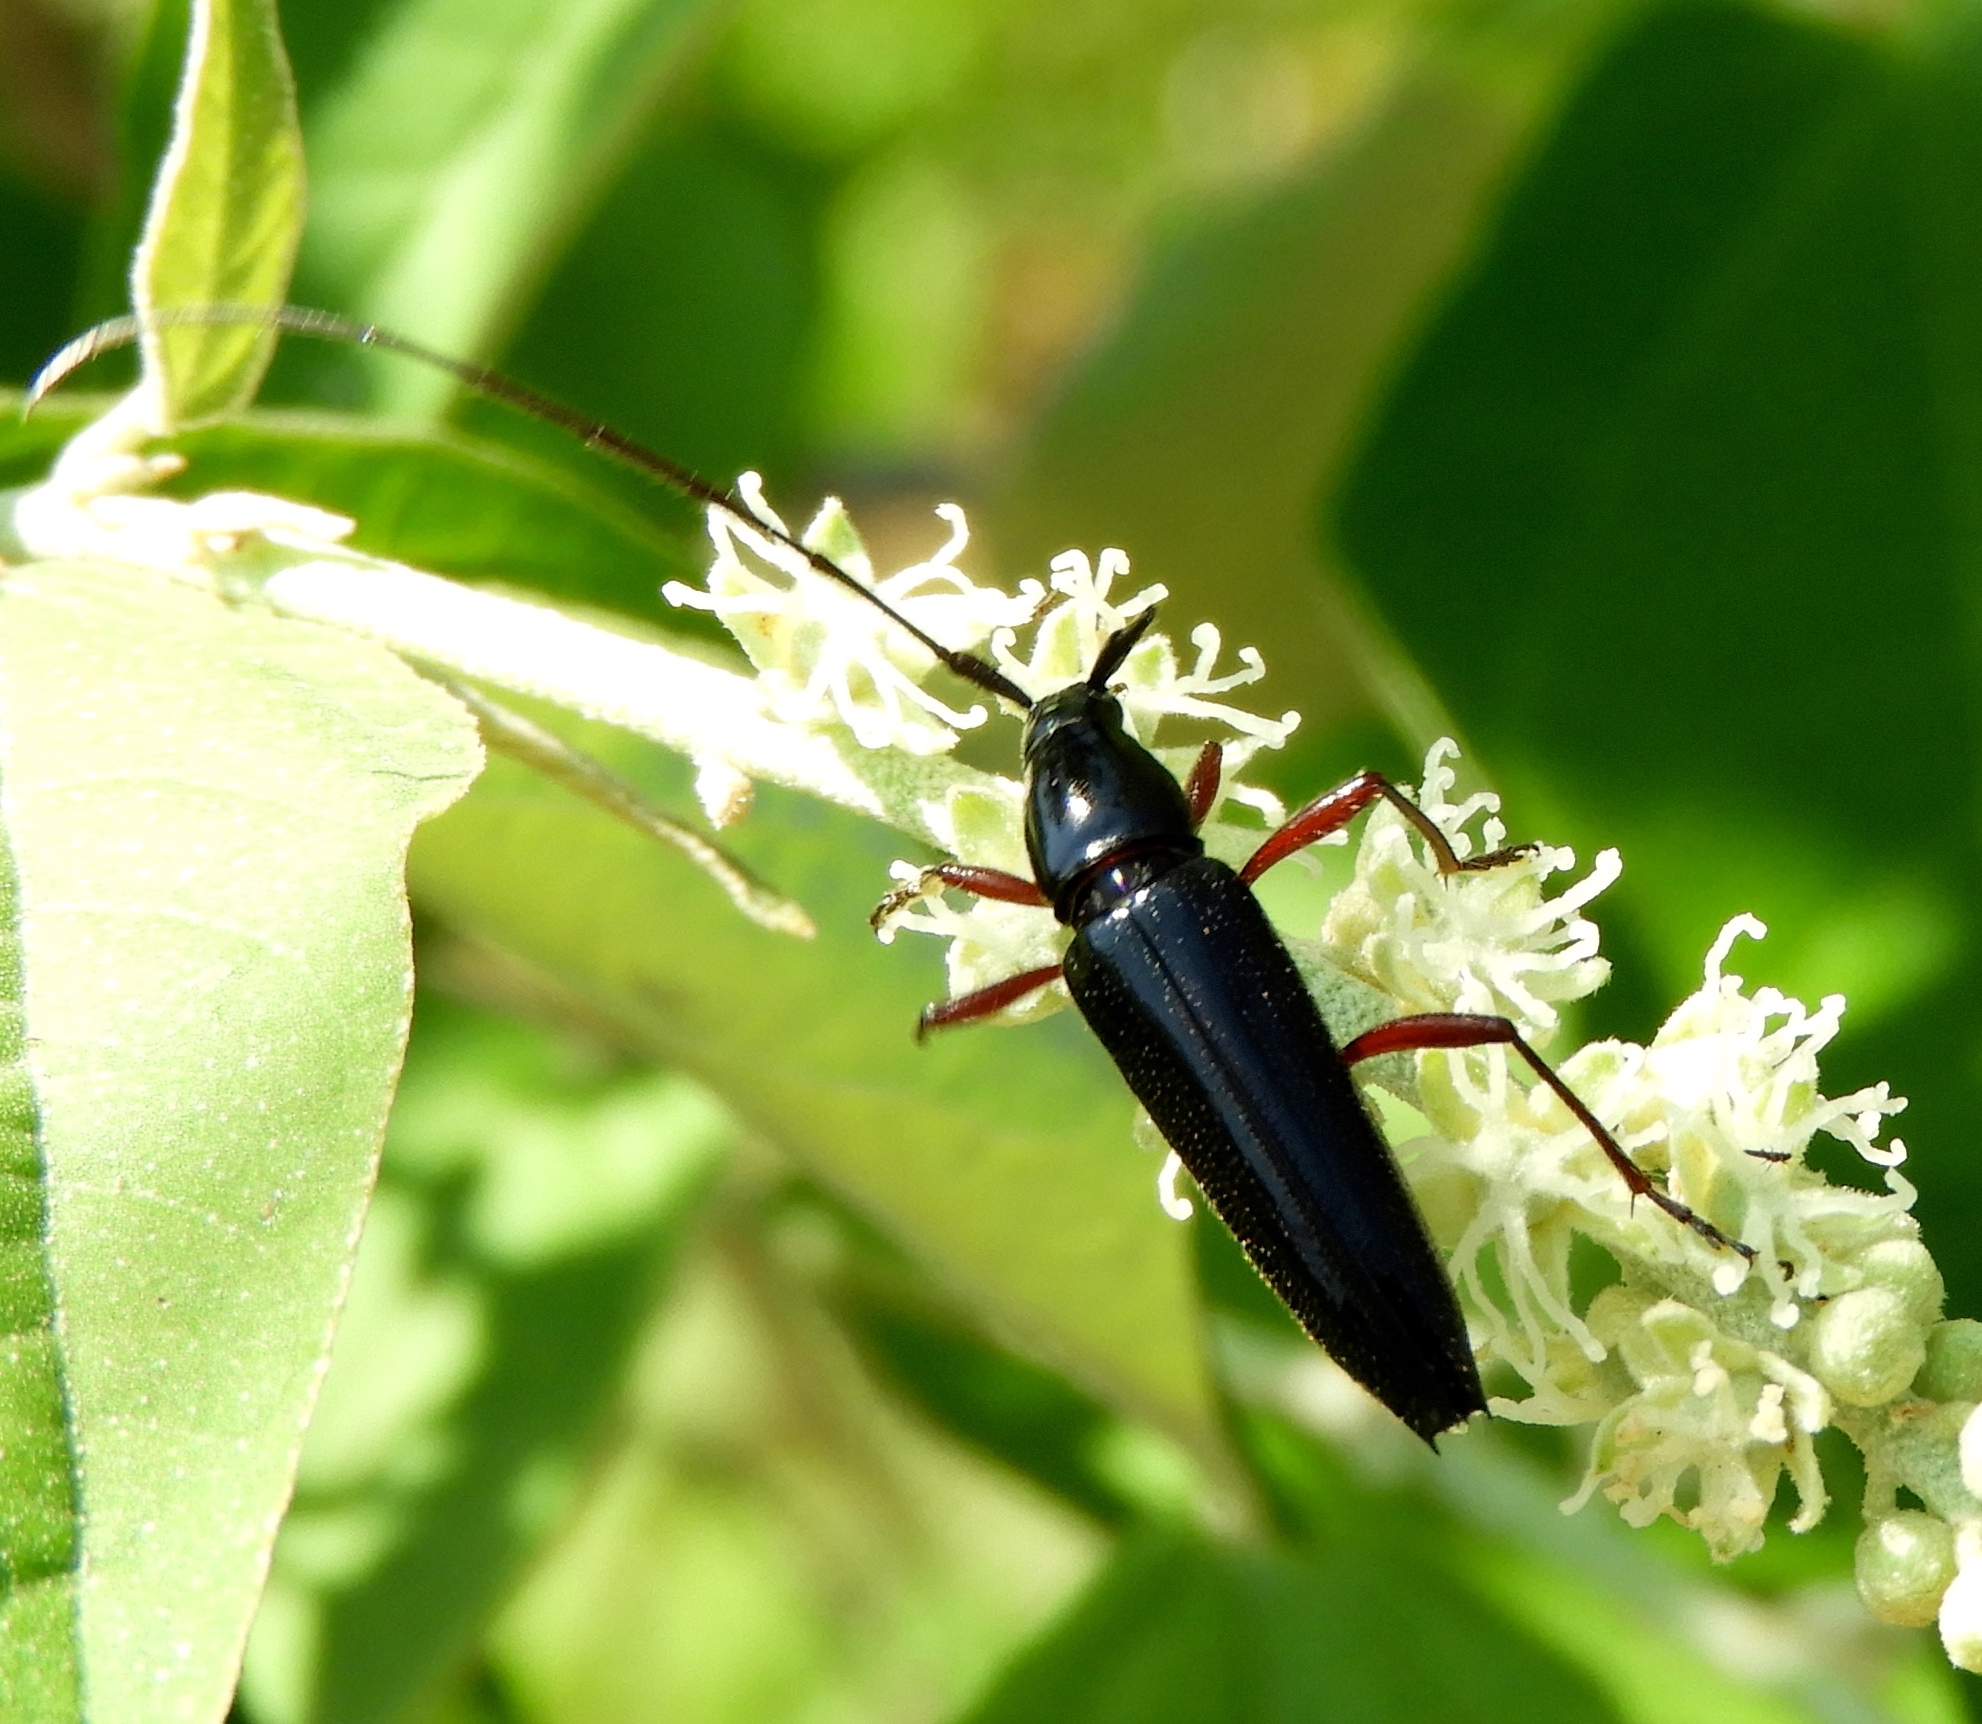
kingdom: Animalia
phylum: Arthropoda
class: Insecta
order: Coleoptera
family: Cerambycidae
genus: Stenosphenus
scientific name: Stenosphenus
